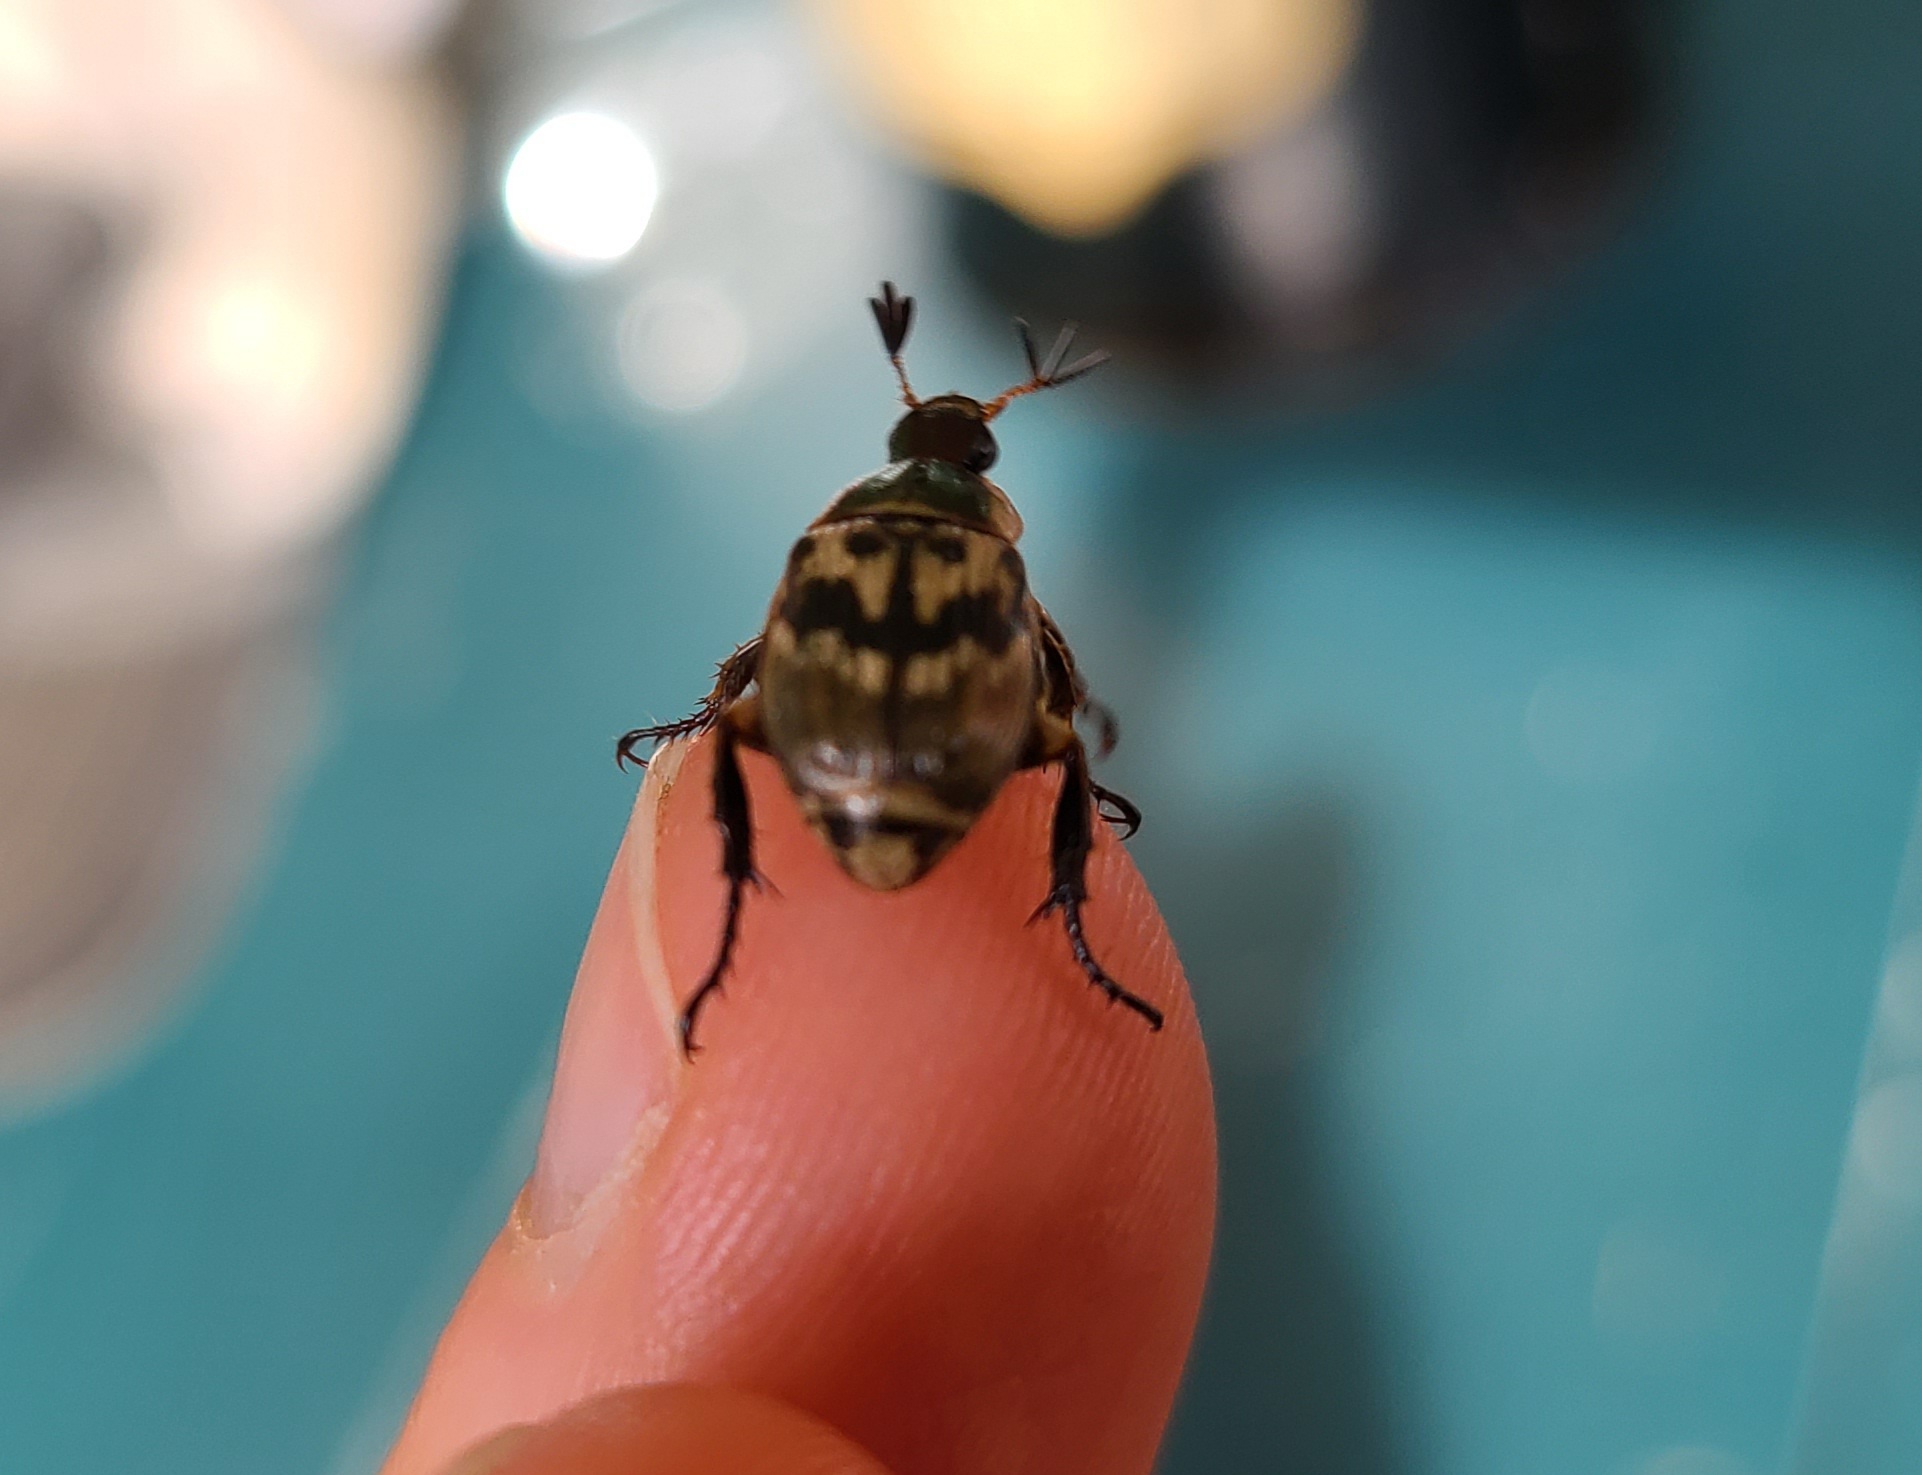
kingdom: Animalia
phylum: Arthropoda
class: Insecta
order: Coleoptera
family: Scarabaeidae
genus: Exomala
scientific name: Exomala orientalis
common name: Oriental beetle
